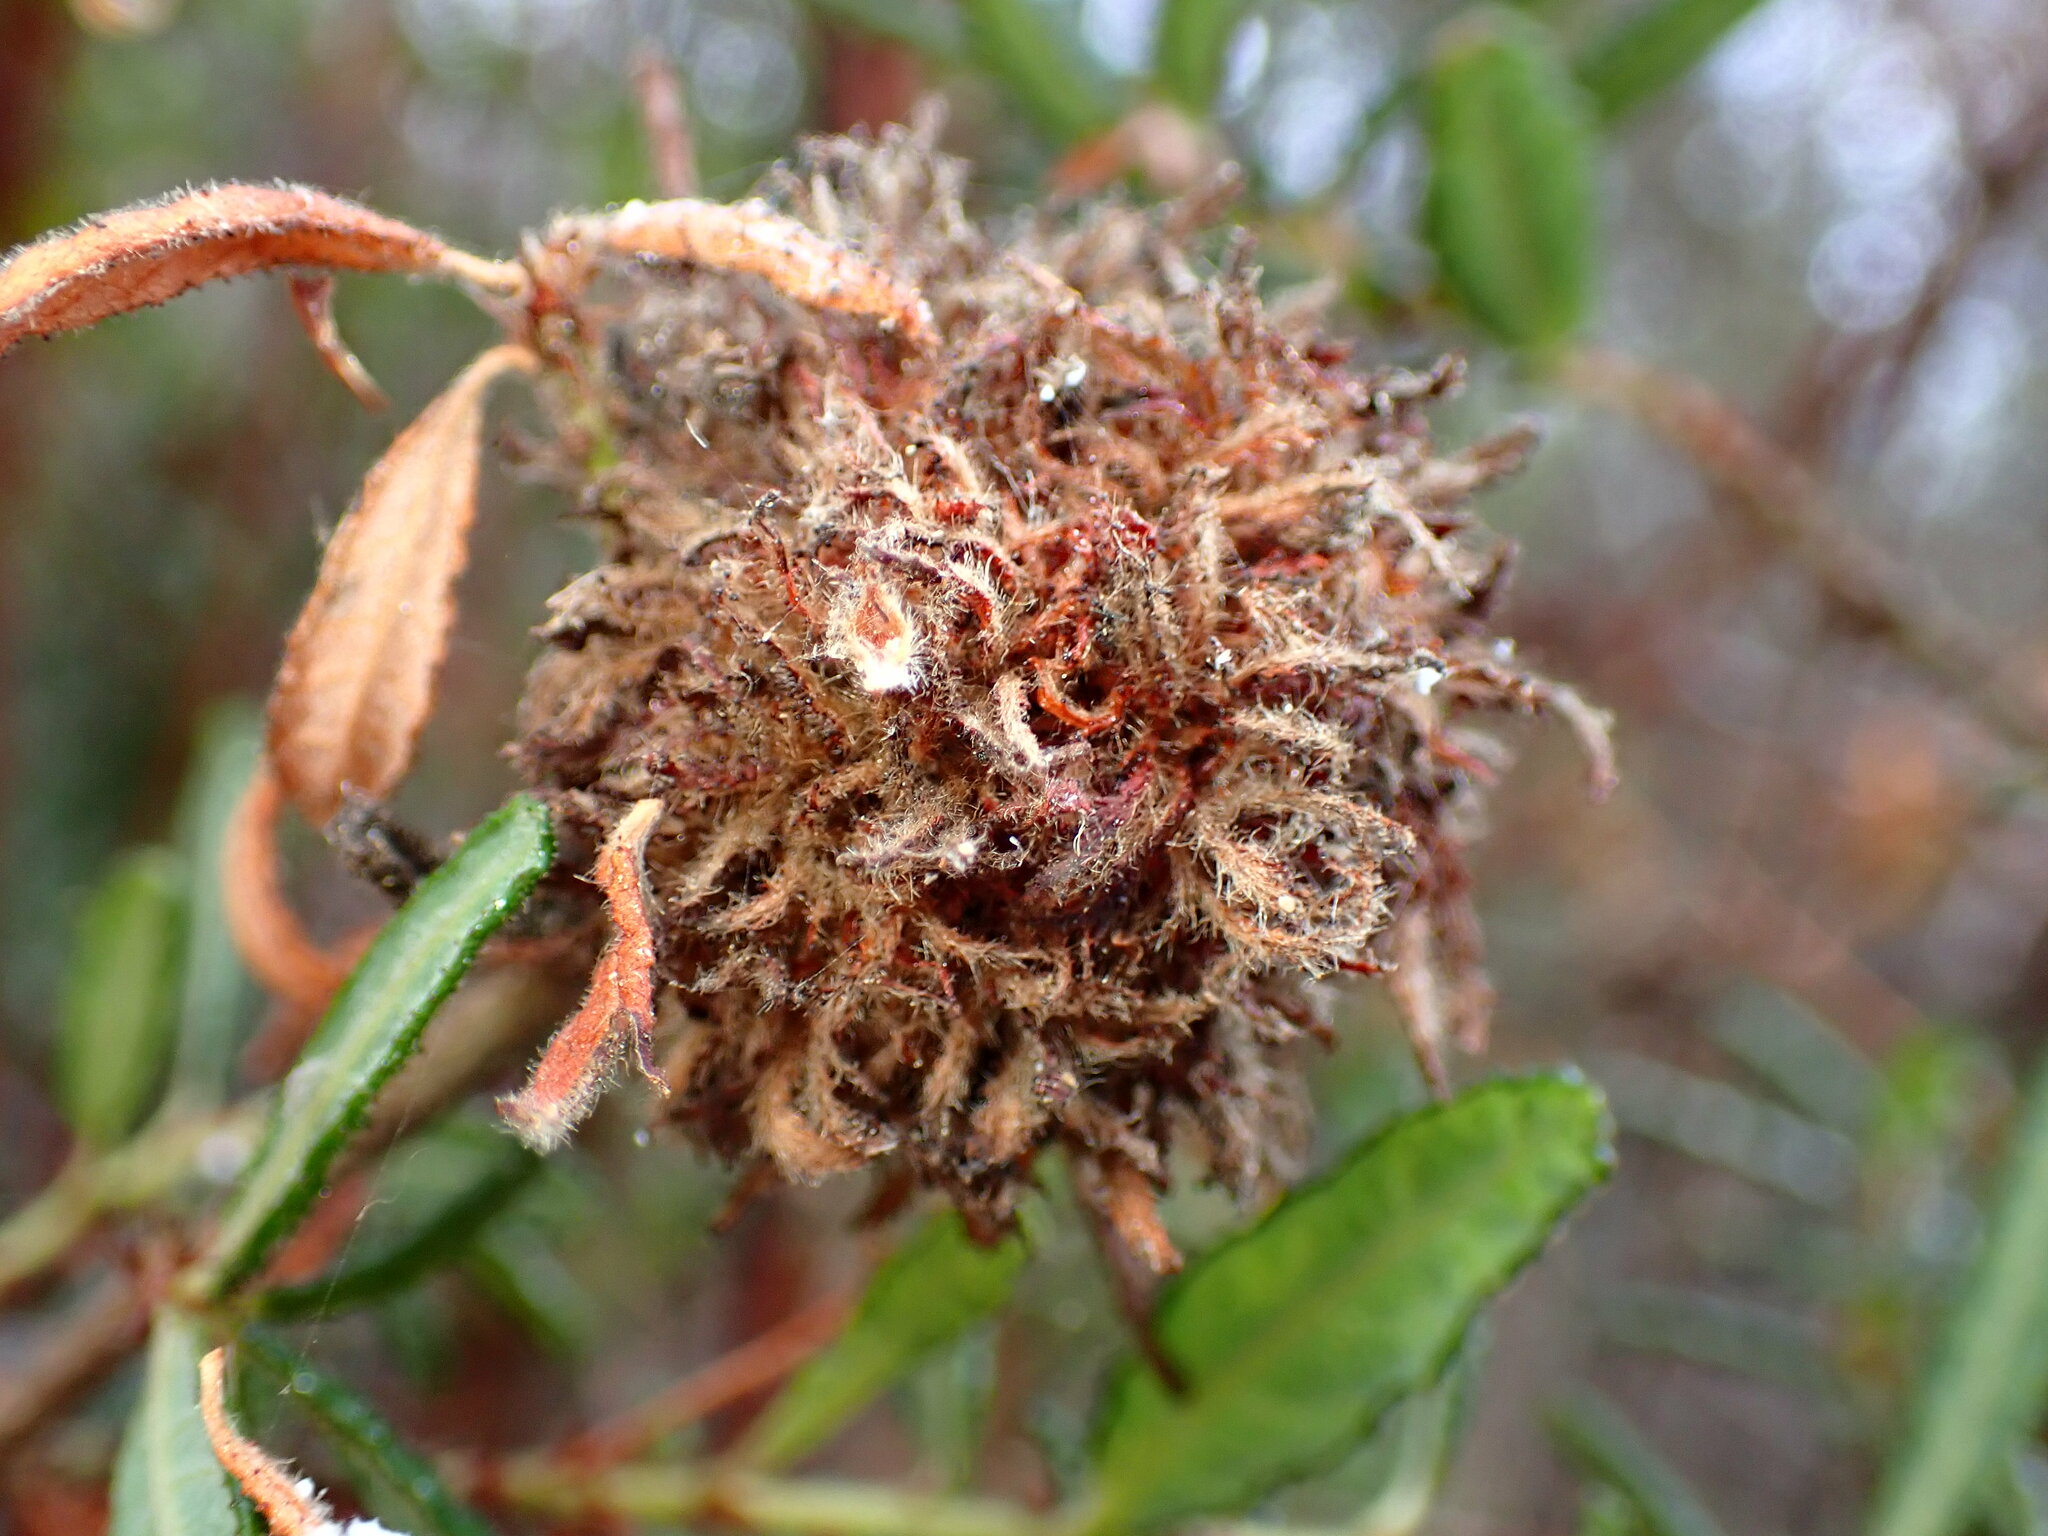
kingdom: Animalia
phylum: Arthropoda
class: Insecta
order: Diptera
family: Cecidomyiidae
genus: Asphondylia
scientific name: Asphondylia ceanothi
